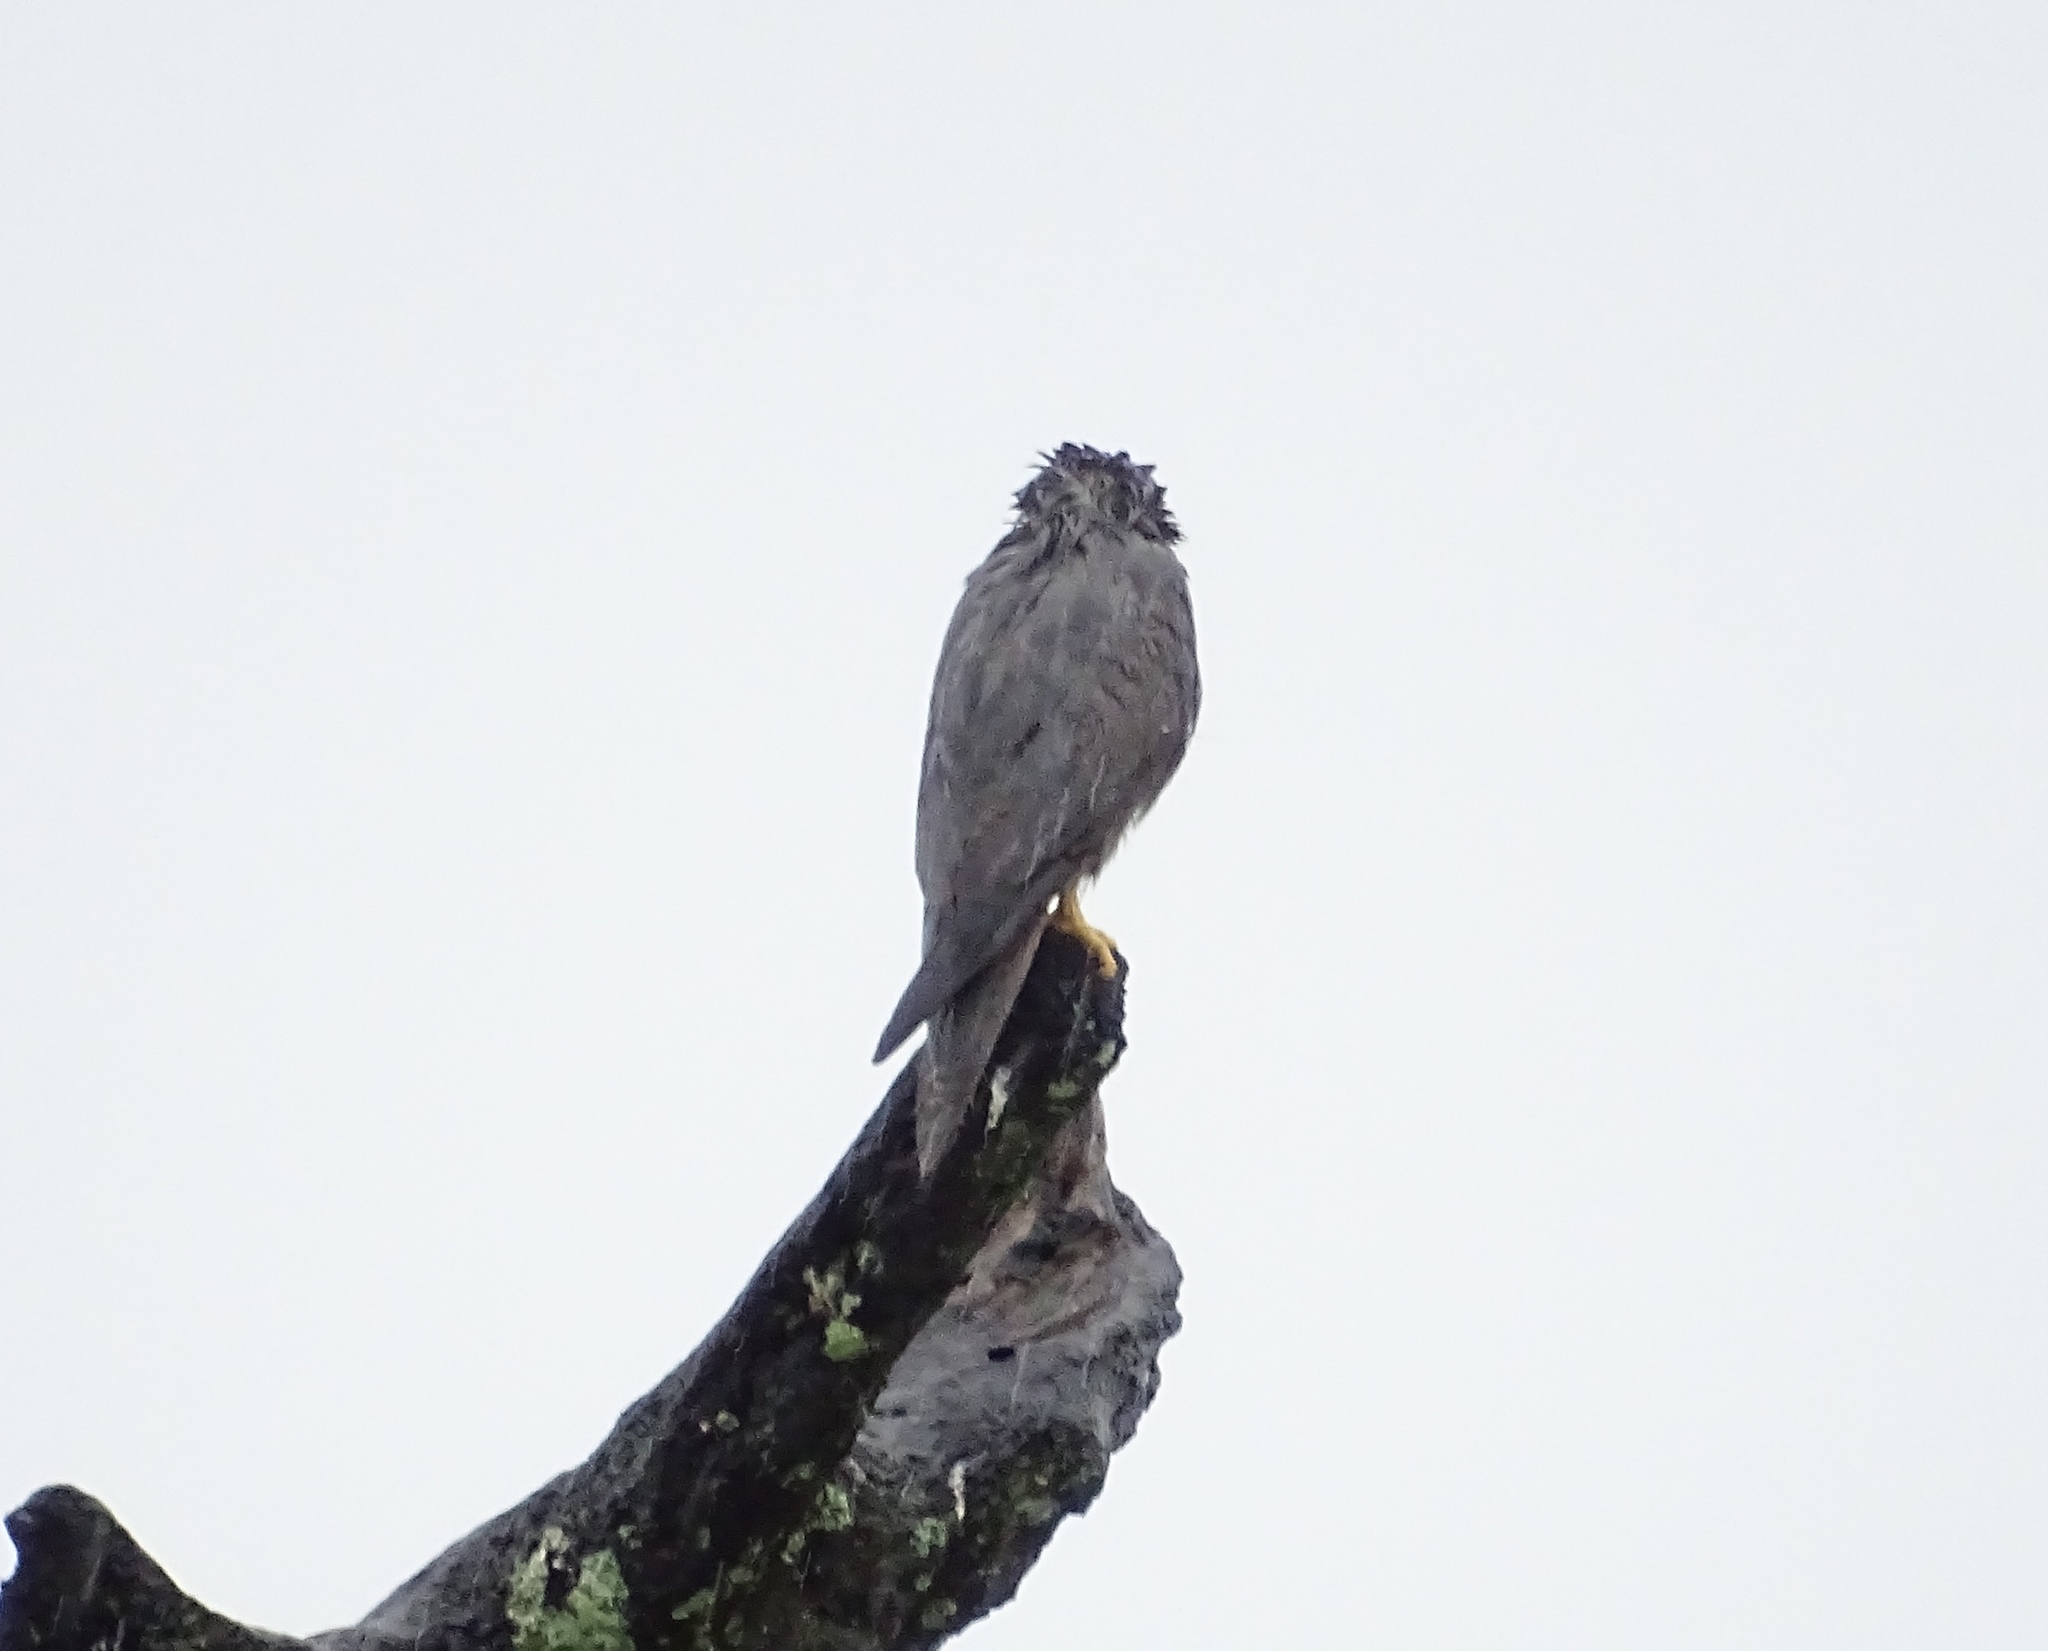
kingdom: Animalia
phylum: Chordata
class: Aves
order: Falconiformes
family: Falconidae
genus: Falco
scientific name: Falco ardosiaceus
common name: Grey kestrel
